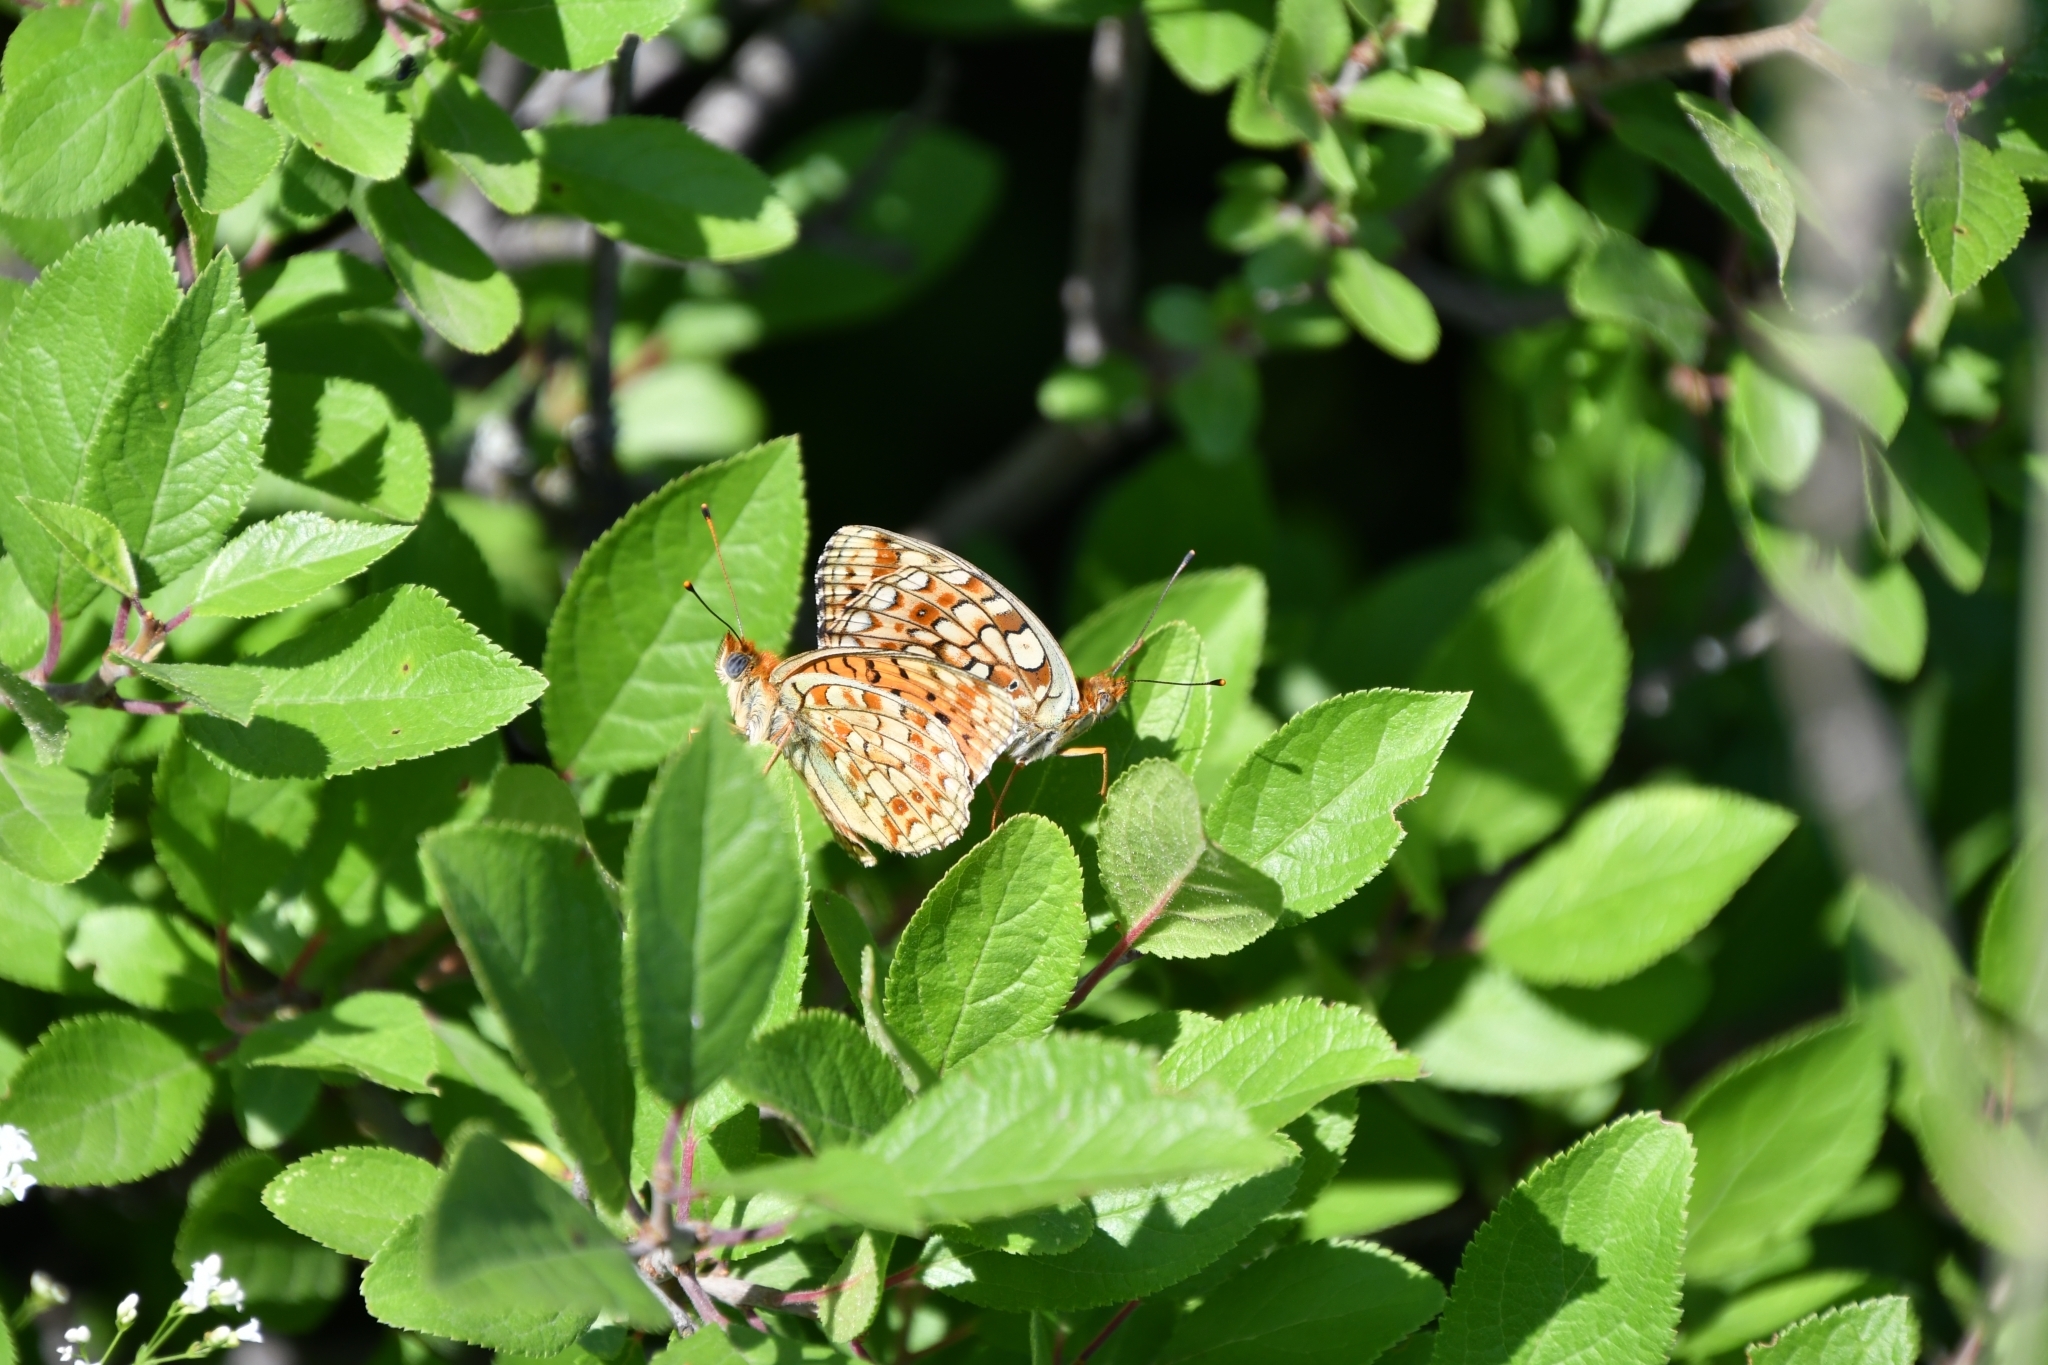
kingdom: Animalia
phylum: Arthropoda
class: Insecta
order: Lepidoptera
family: Nymphalidae
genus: Fabriciana
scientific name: Fabriciana niobe
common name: Niobe fritillary
